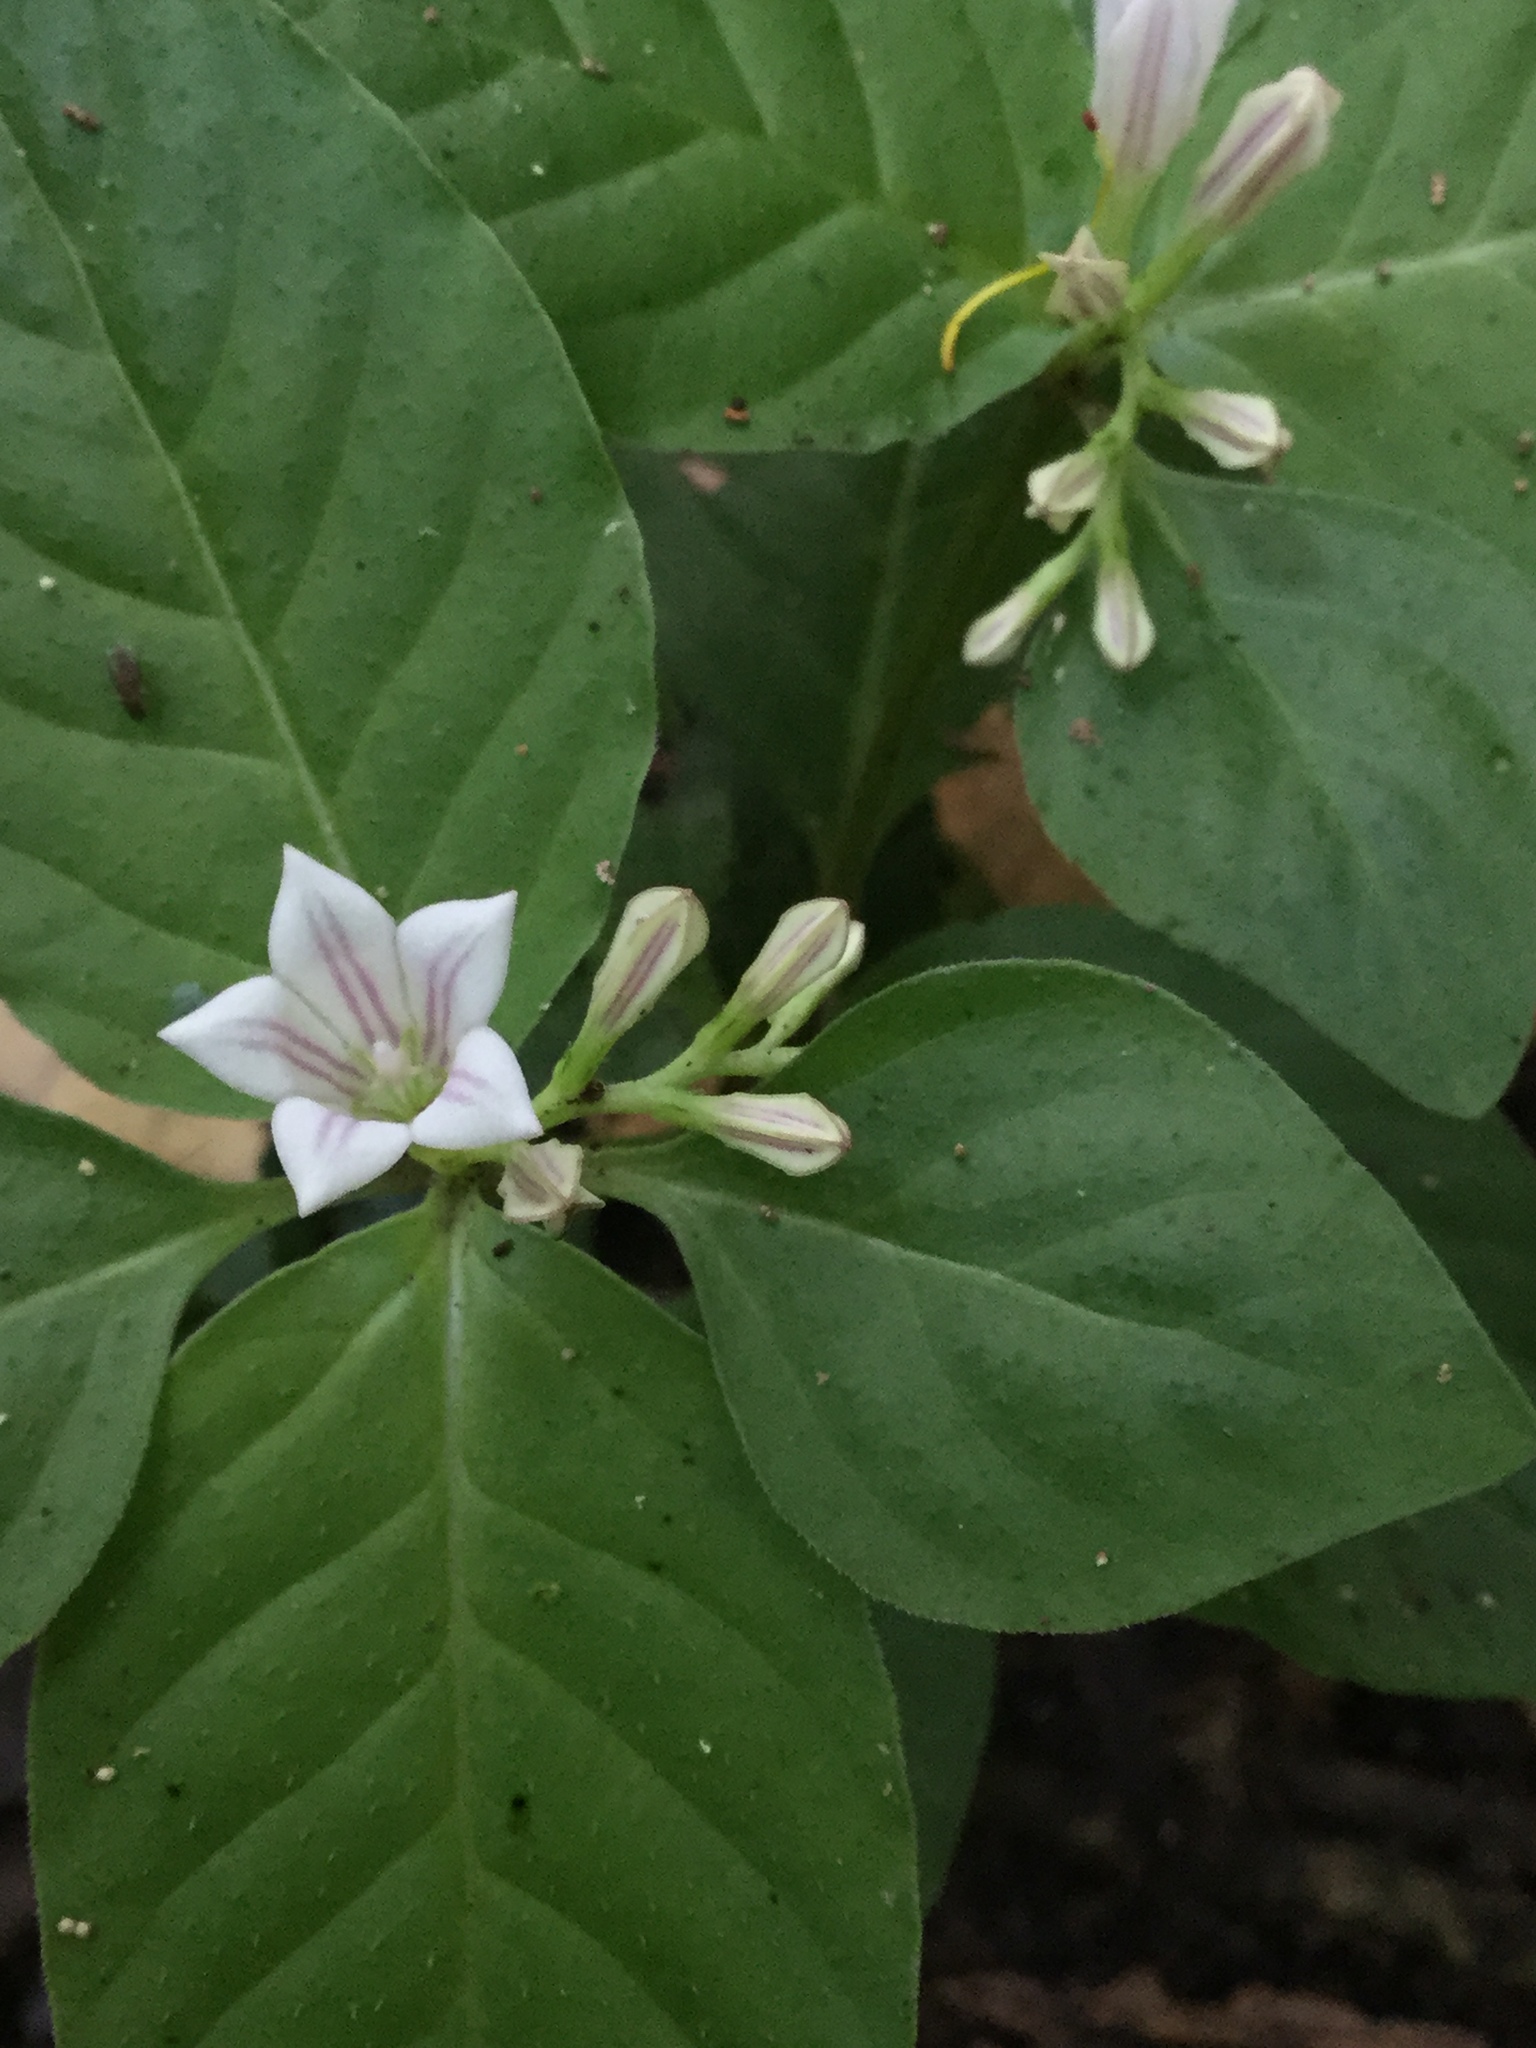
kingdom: Plantae
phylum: Tracheophyta
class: Magnoliopsida
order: Gentianales
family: Loganiaceae
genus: Spigelia
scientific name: Spigelia humboldtiana
